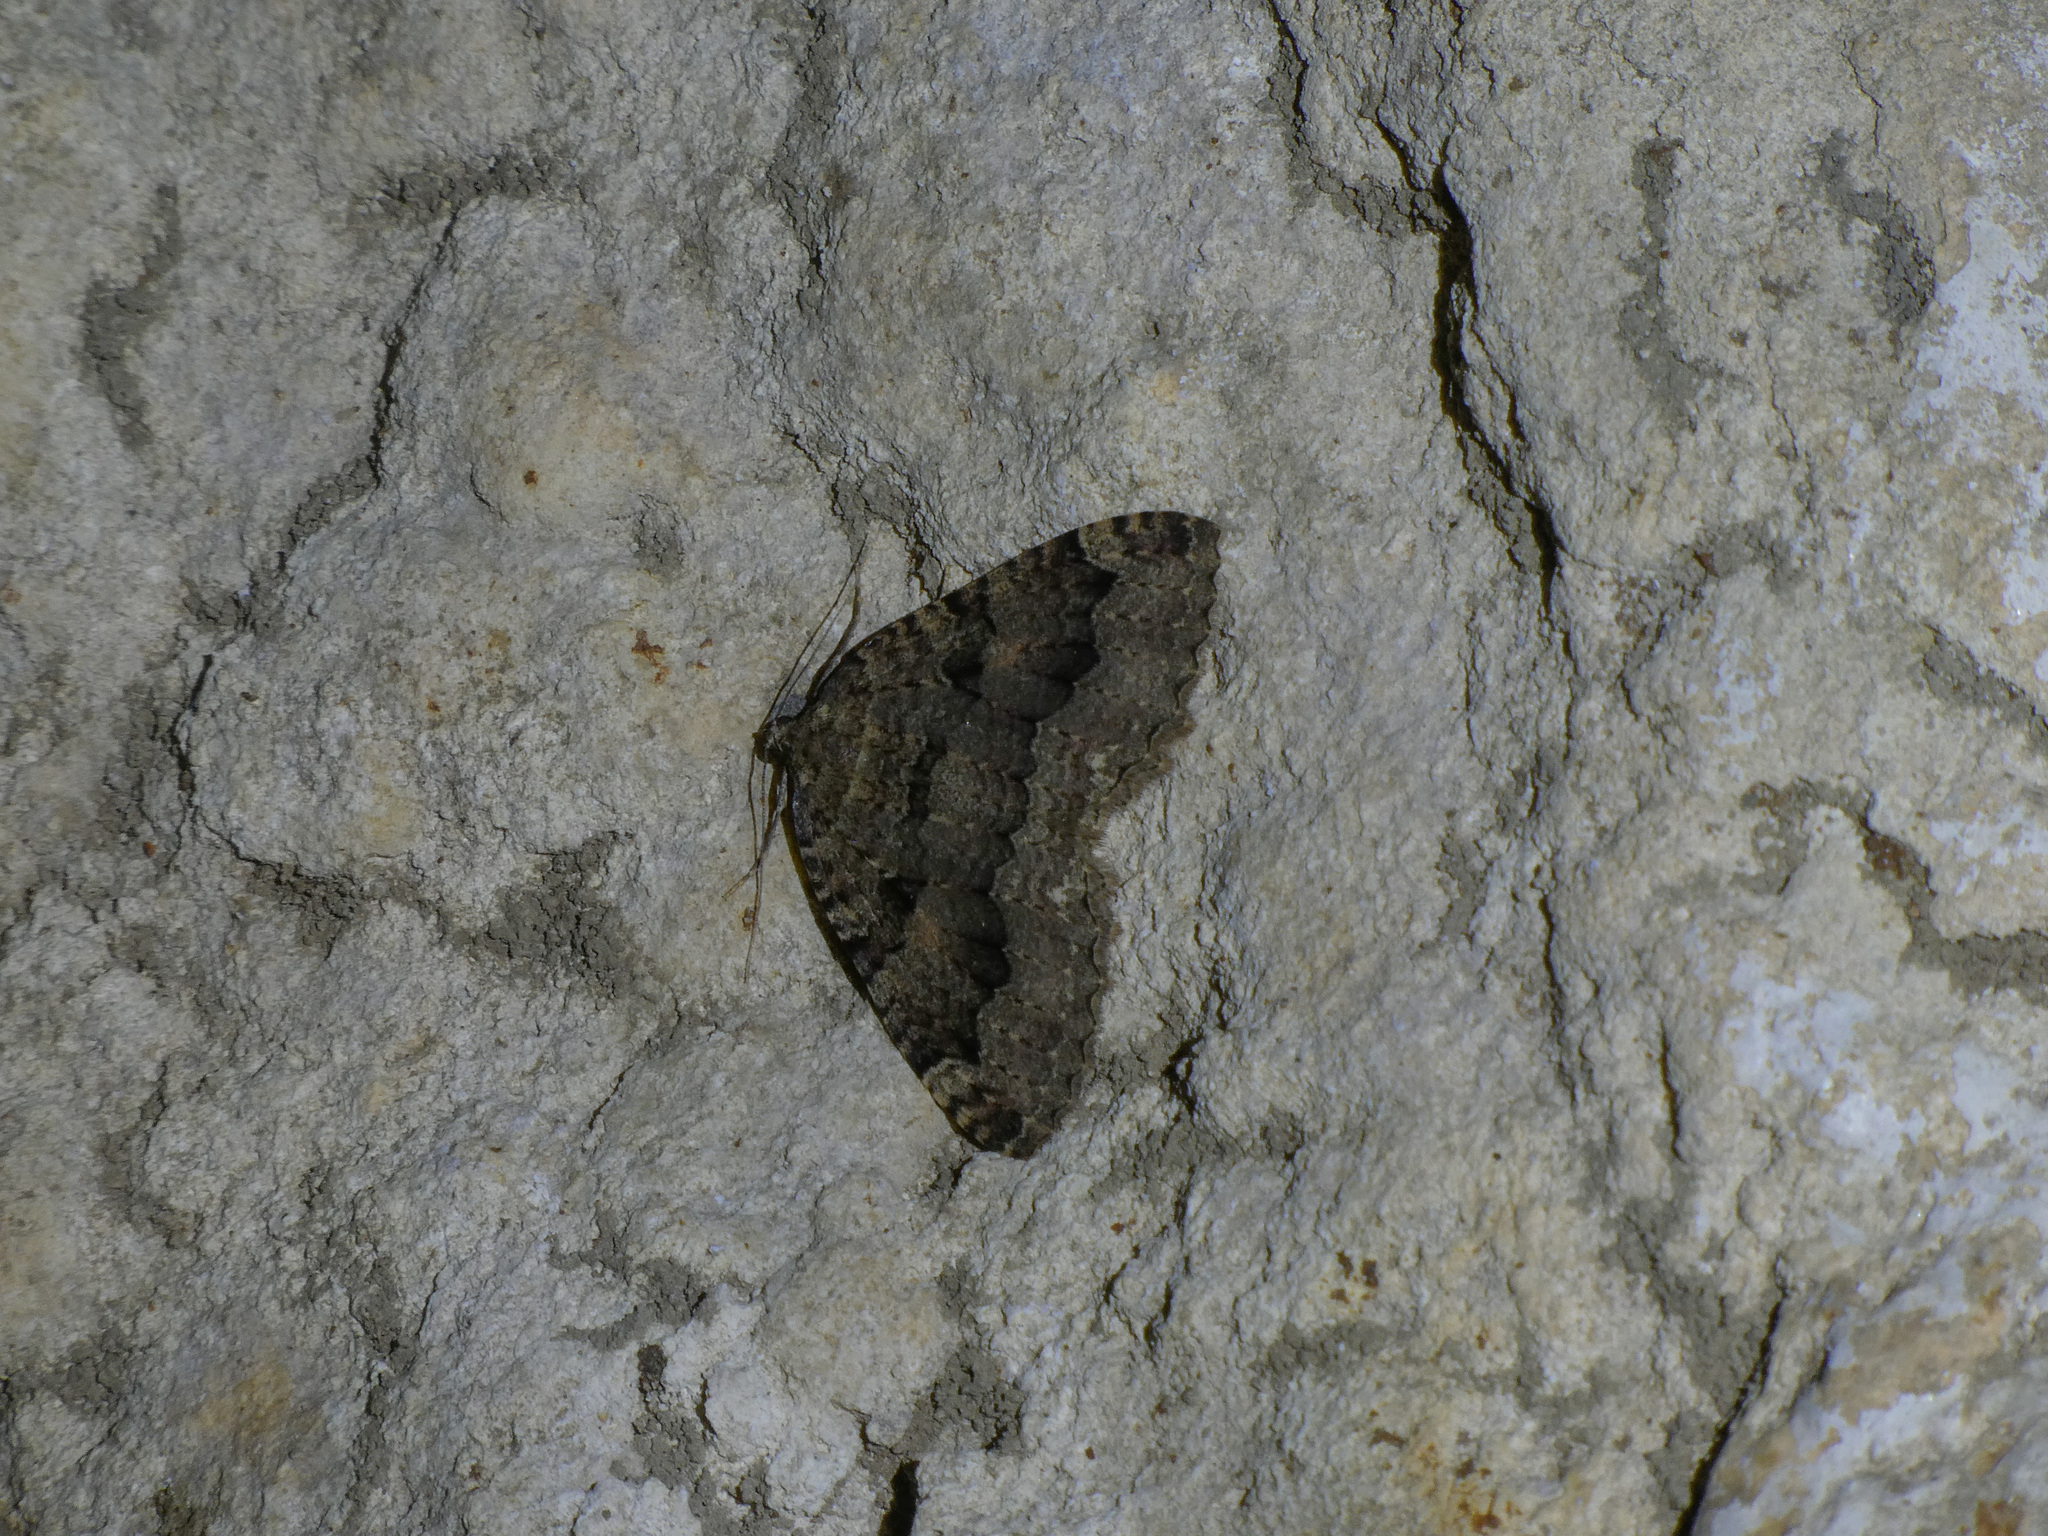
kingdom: Animalia
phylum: Arthropoda
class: Insecta
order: Lepidoptera
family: Geometridae
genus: Triphosa
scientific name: Triphosa dubitata
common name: Tissue
